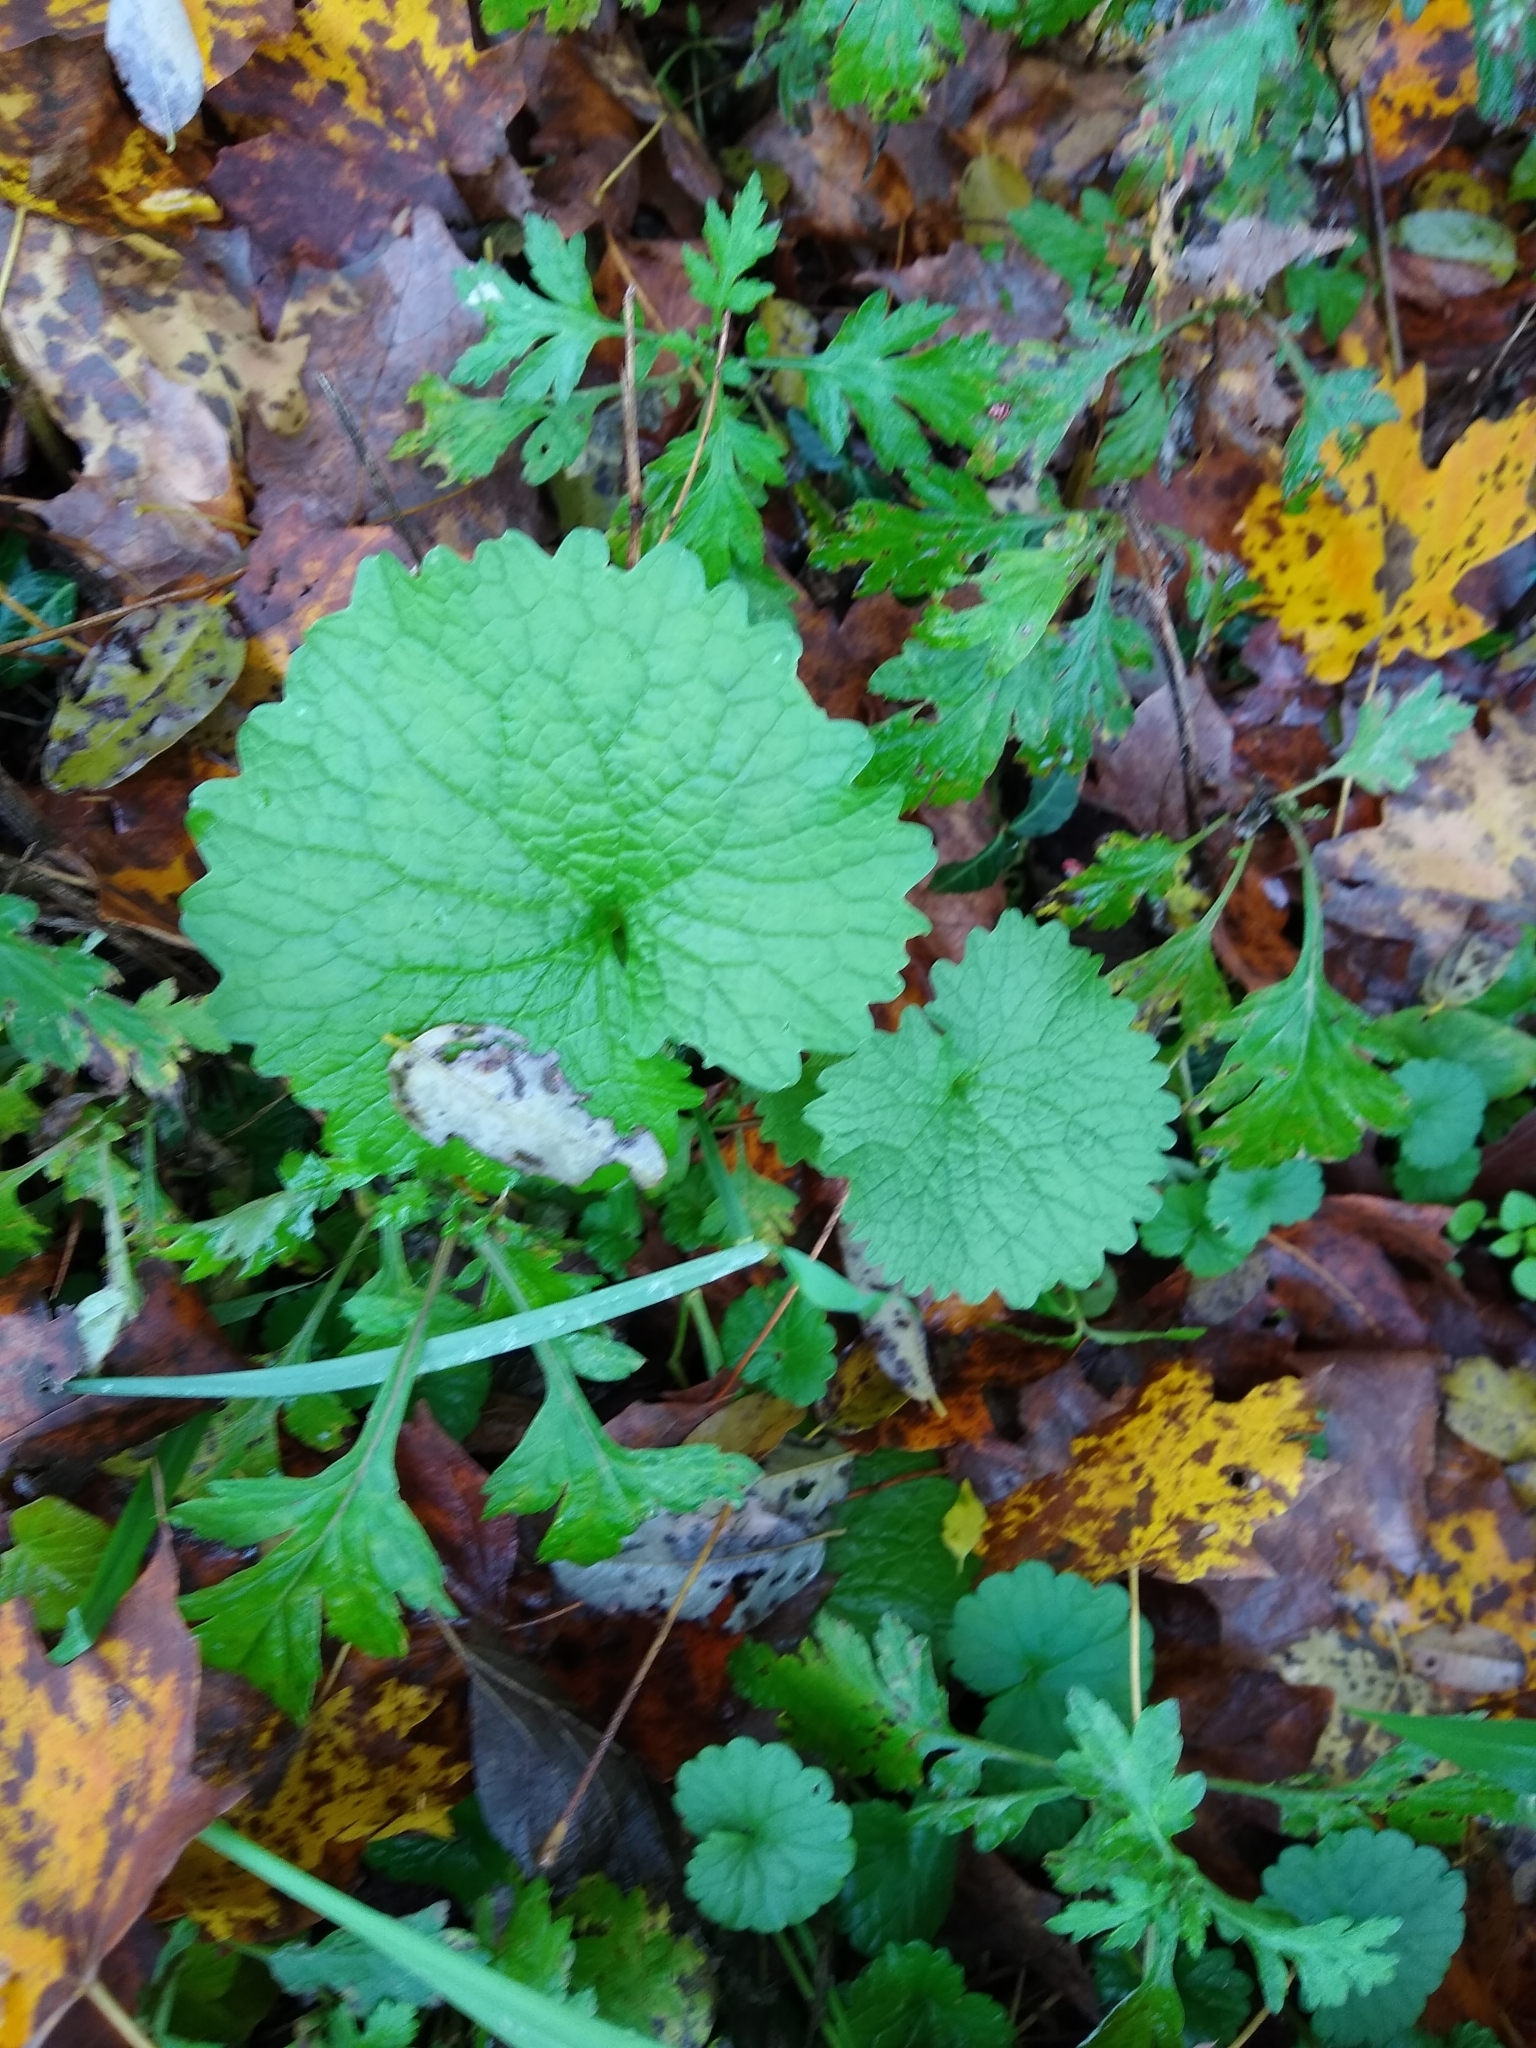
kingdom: Plantae
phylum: Tracheophyta
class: Magnoliopsida
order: Brassicales
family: Brassicaceae
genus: Alliaria
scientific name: Alliaria petiolata
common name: Garlic mustard
